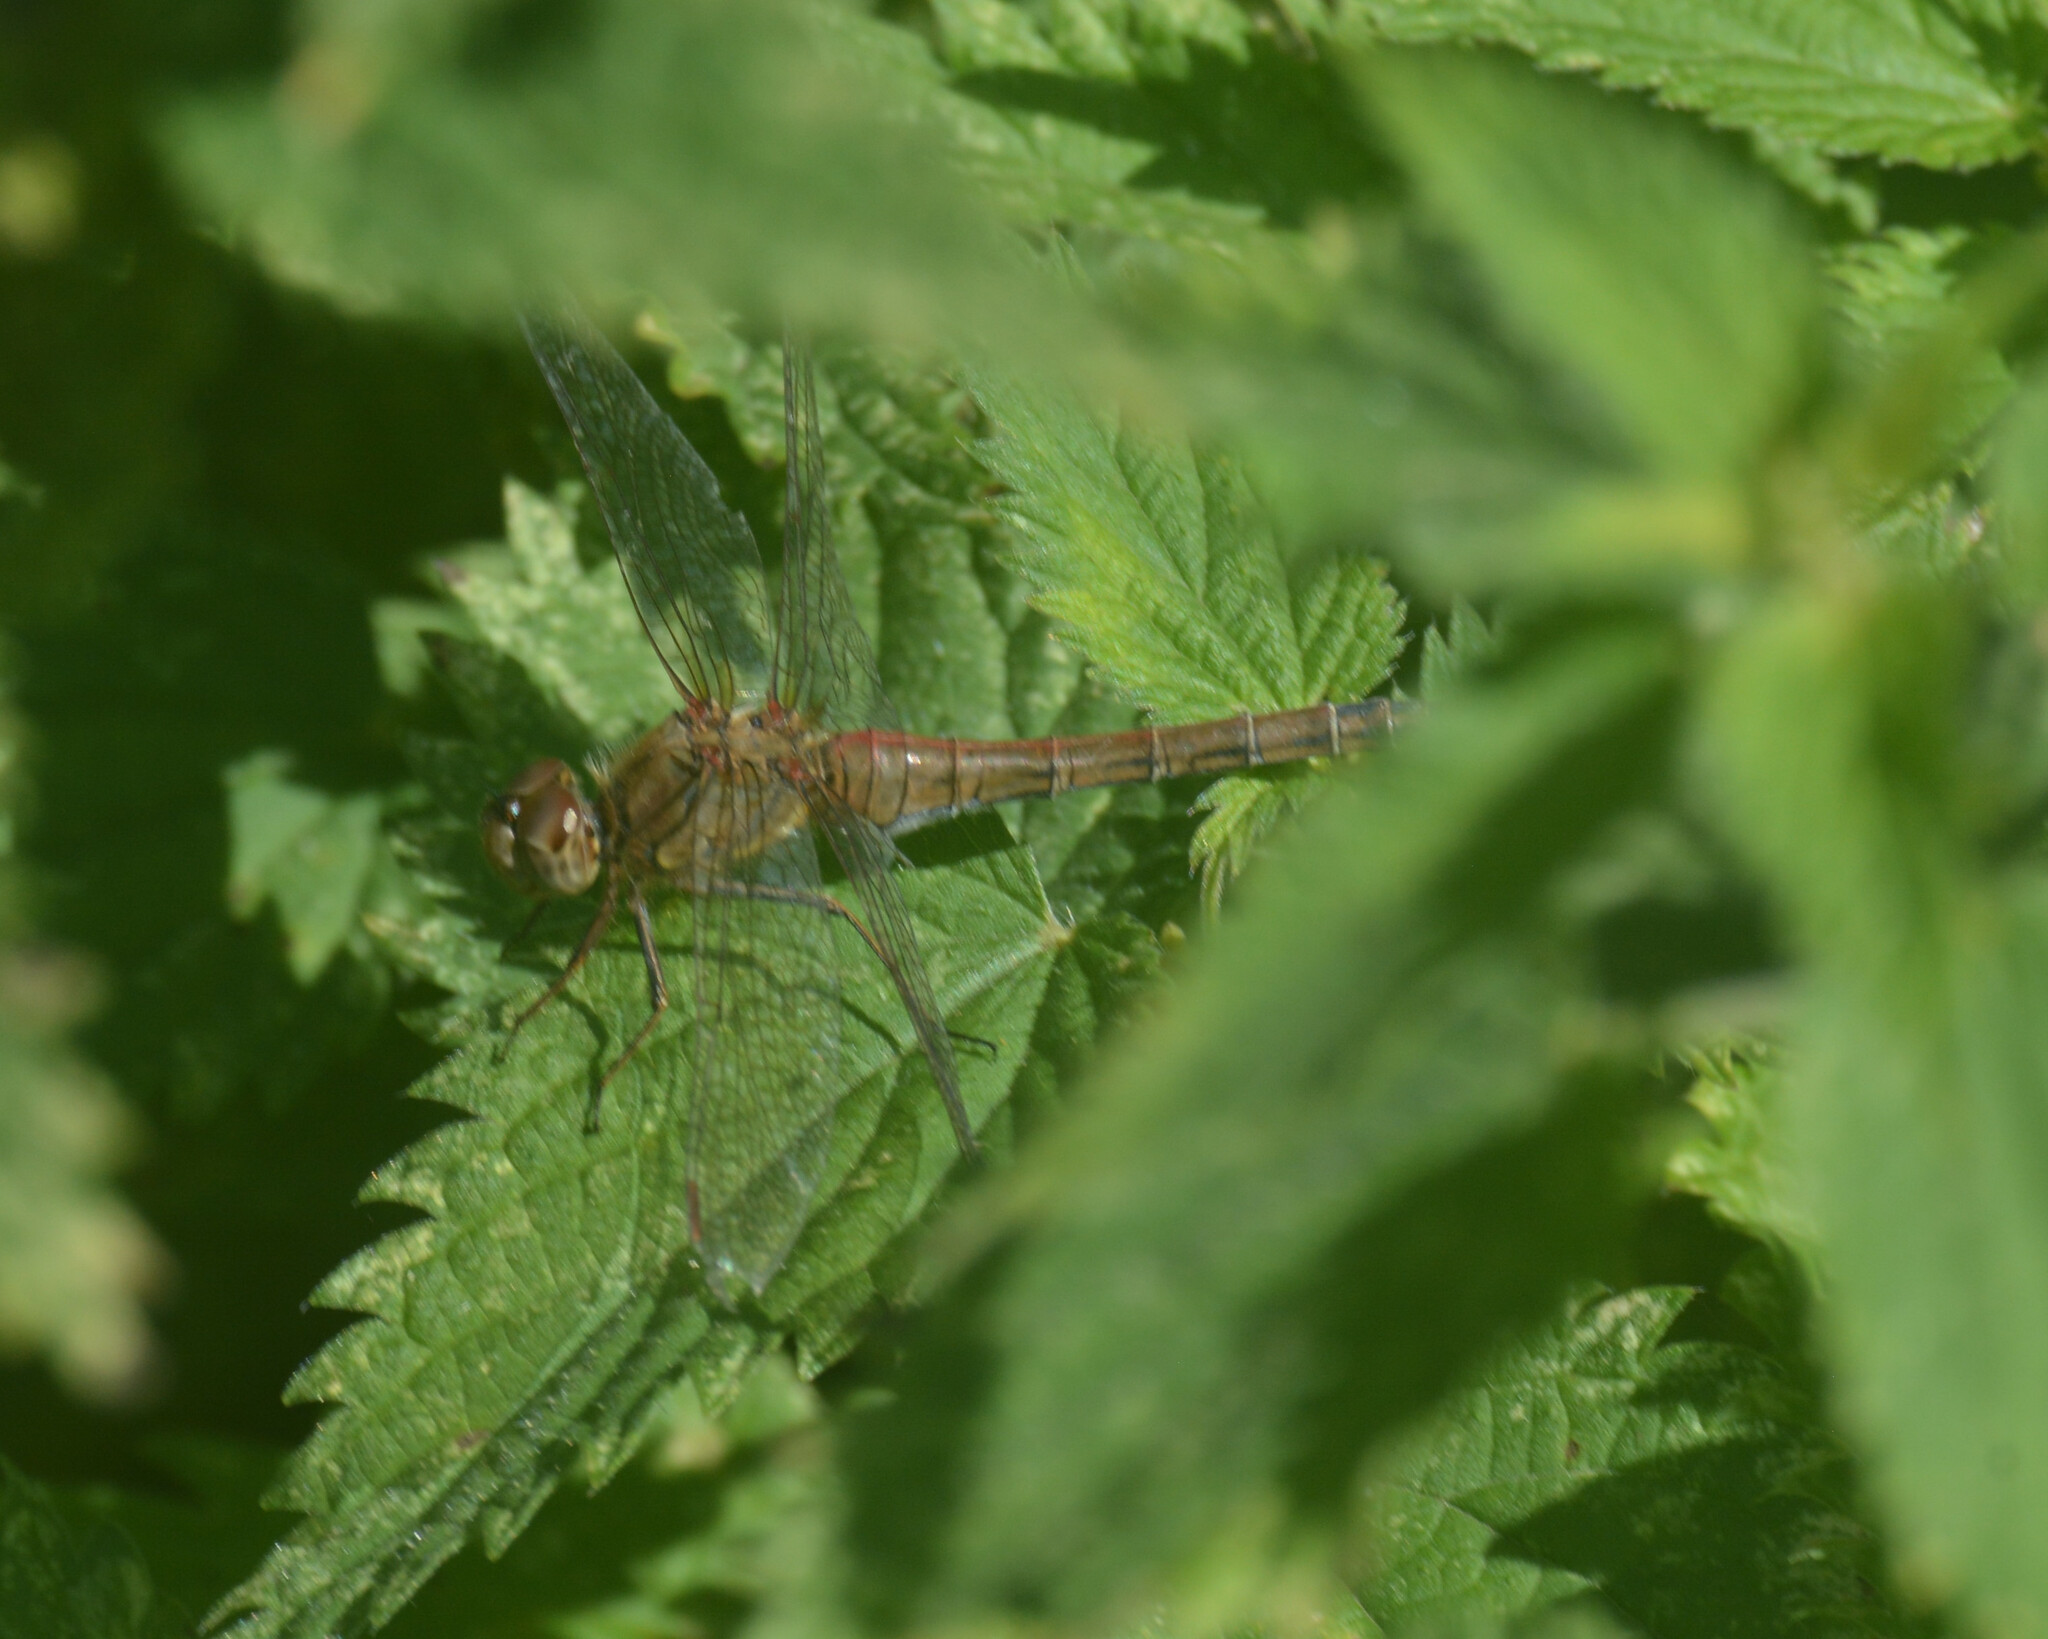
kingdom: Animalia
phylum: Arthropoda
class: Insecta
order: Odonata
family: Libellulidae
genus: Sympetrum
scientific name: Sympetrum striolatum
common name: Common darter
